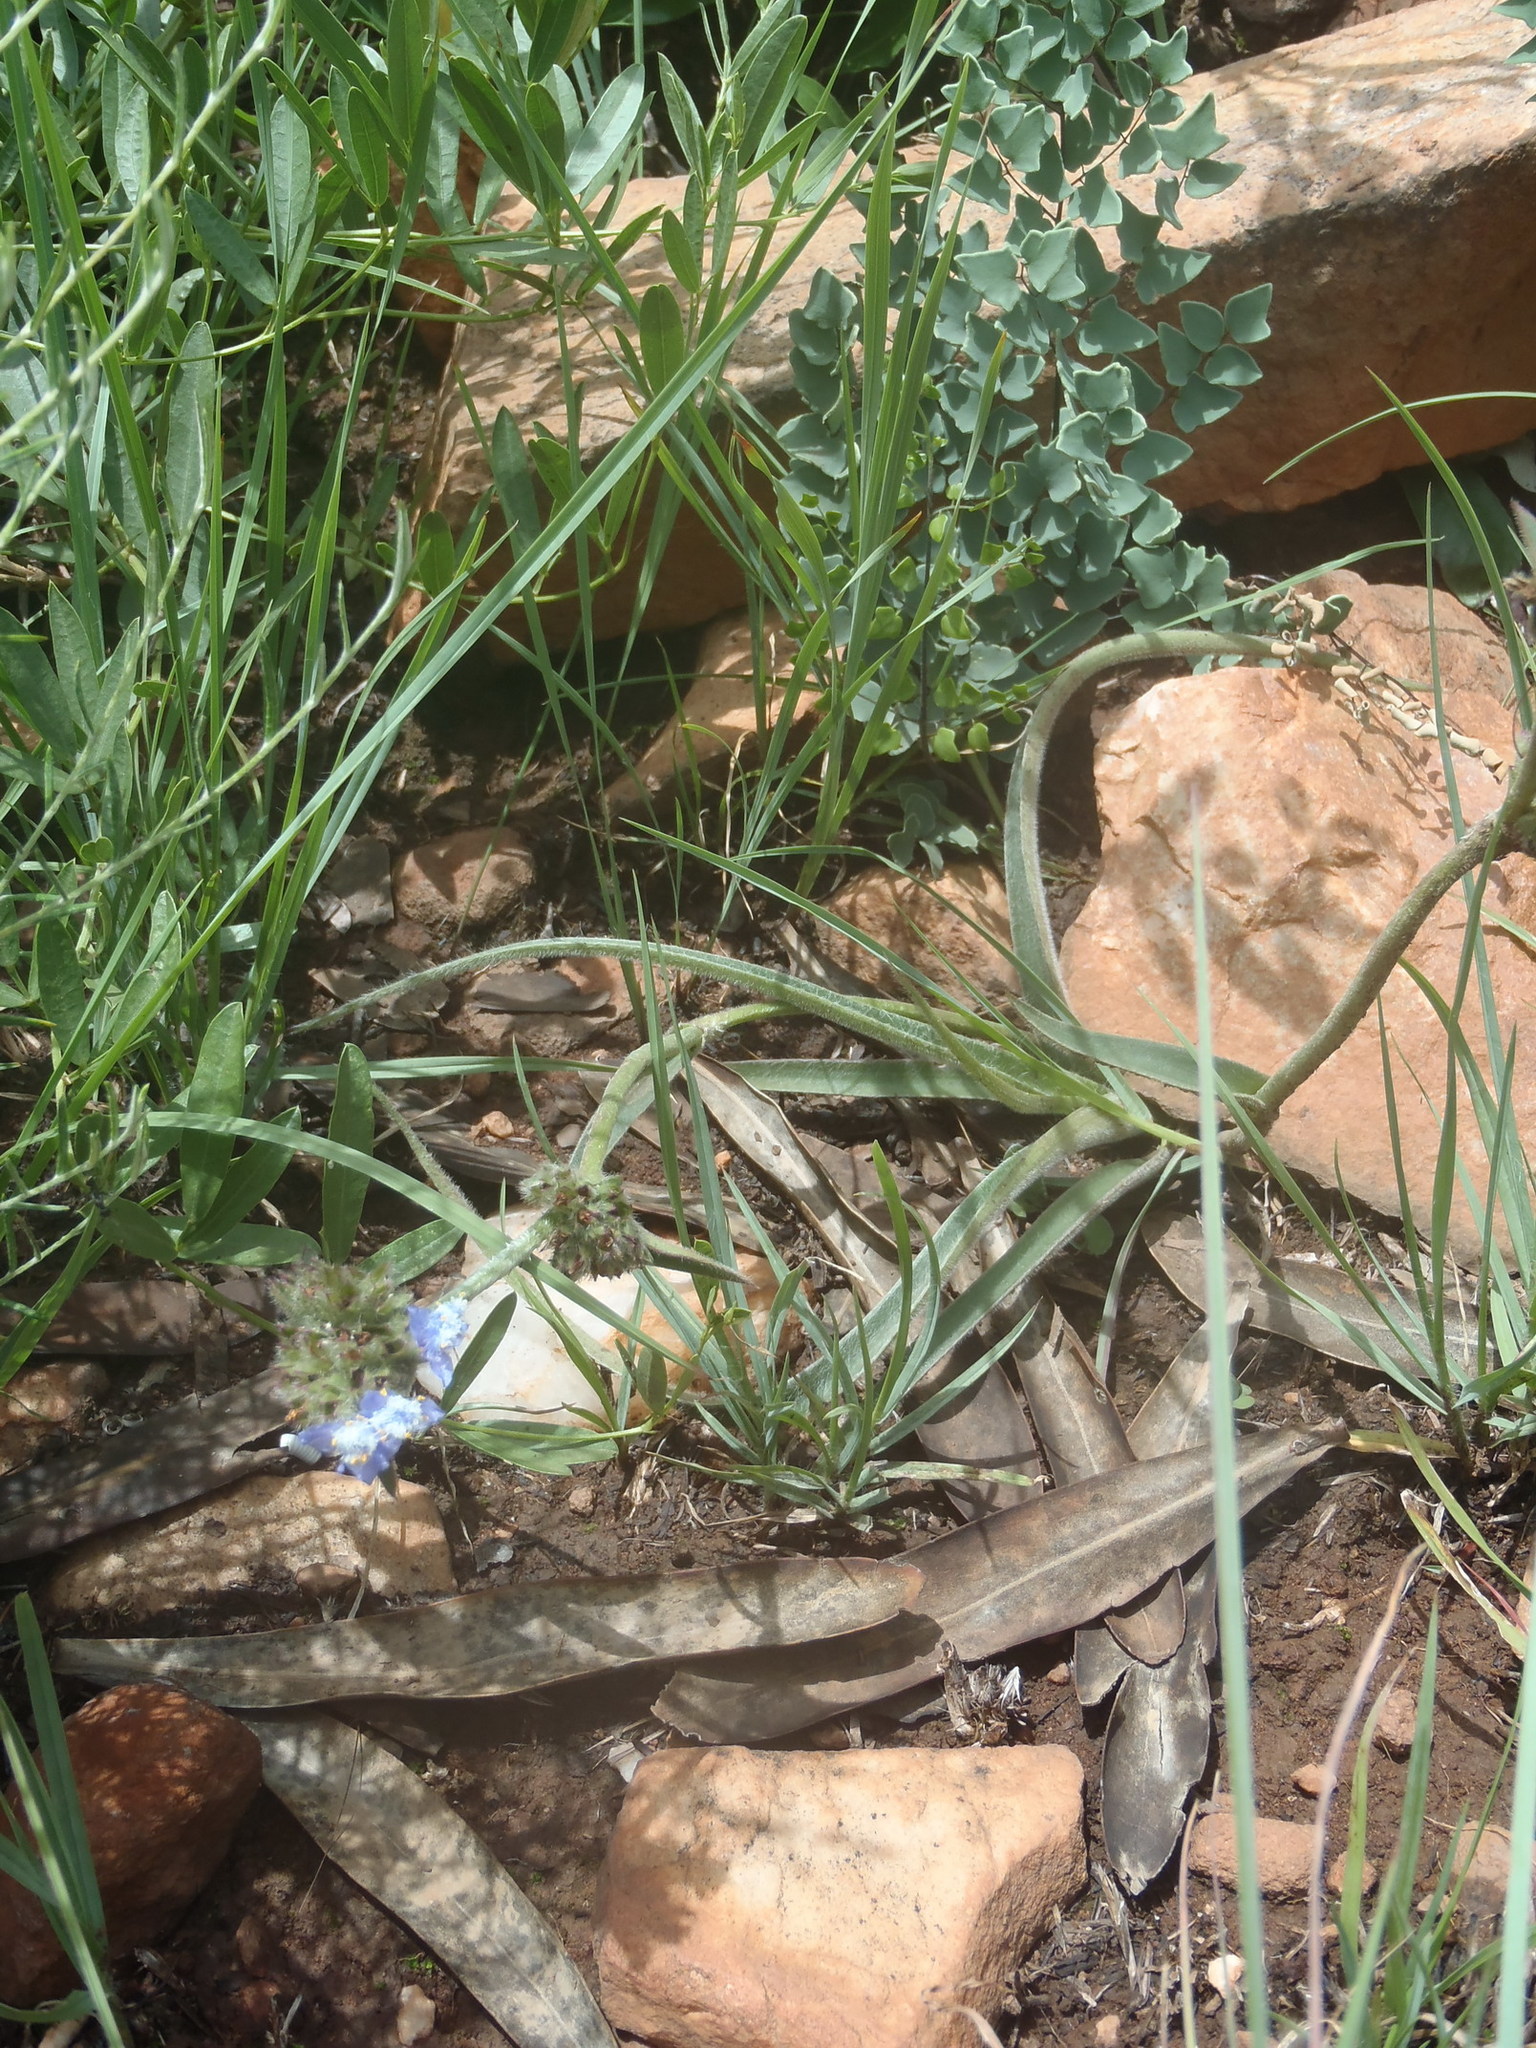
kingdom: Plantae
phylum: Tracheophyta
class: Liliopsida
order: Commelinales
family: Commelinaceae
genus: Cyanotis
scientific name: Cyanotis speciosa
